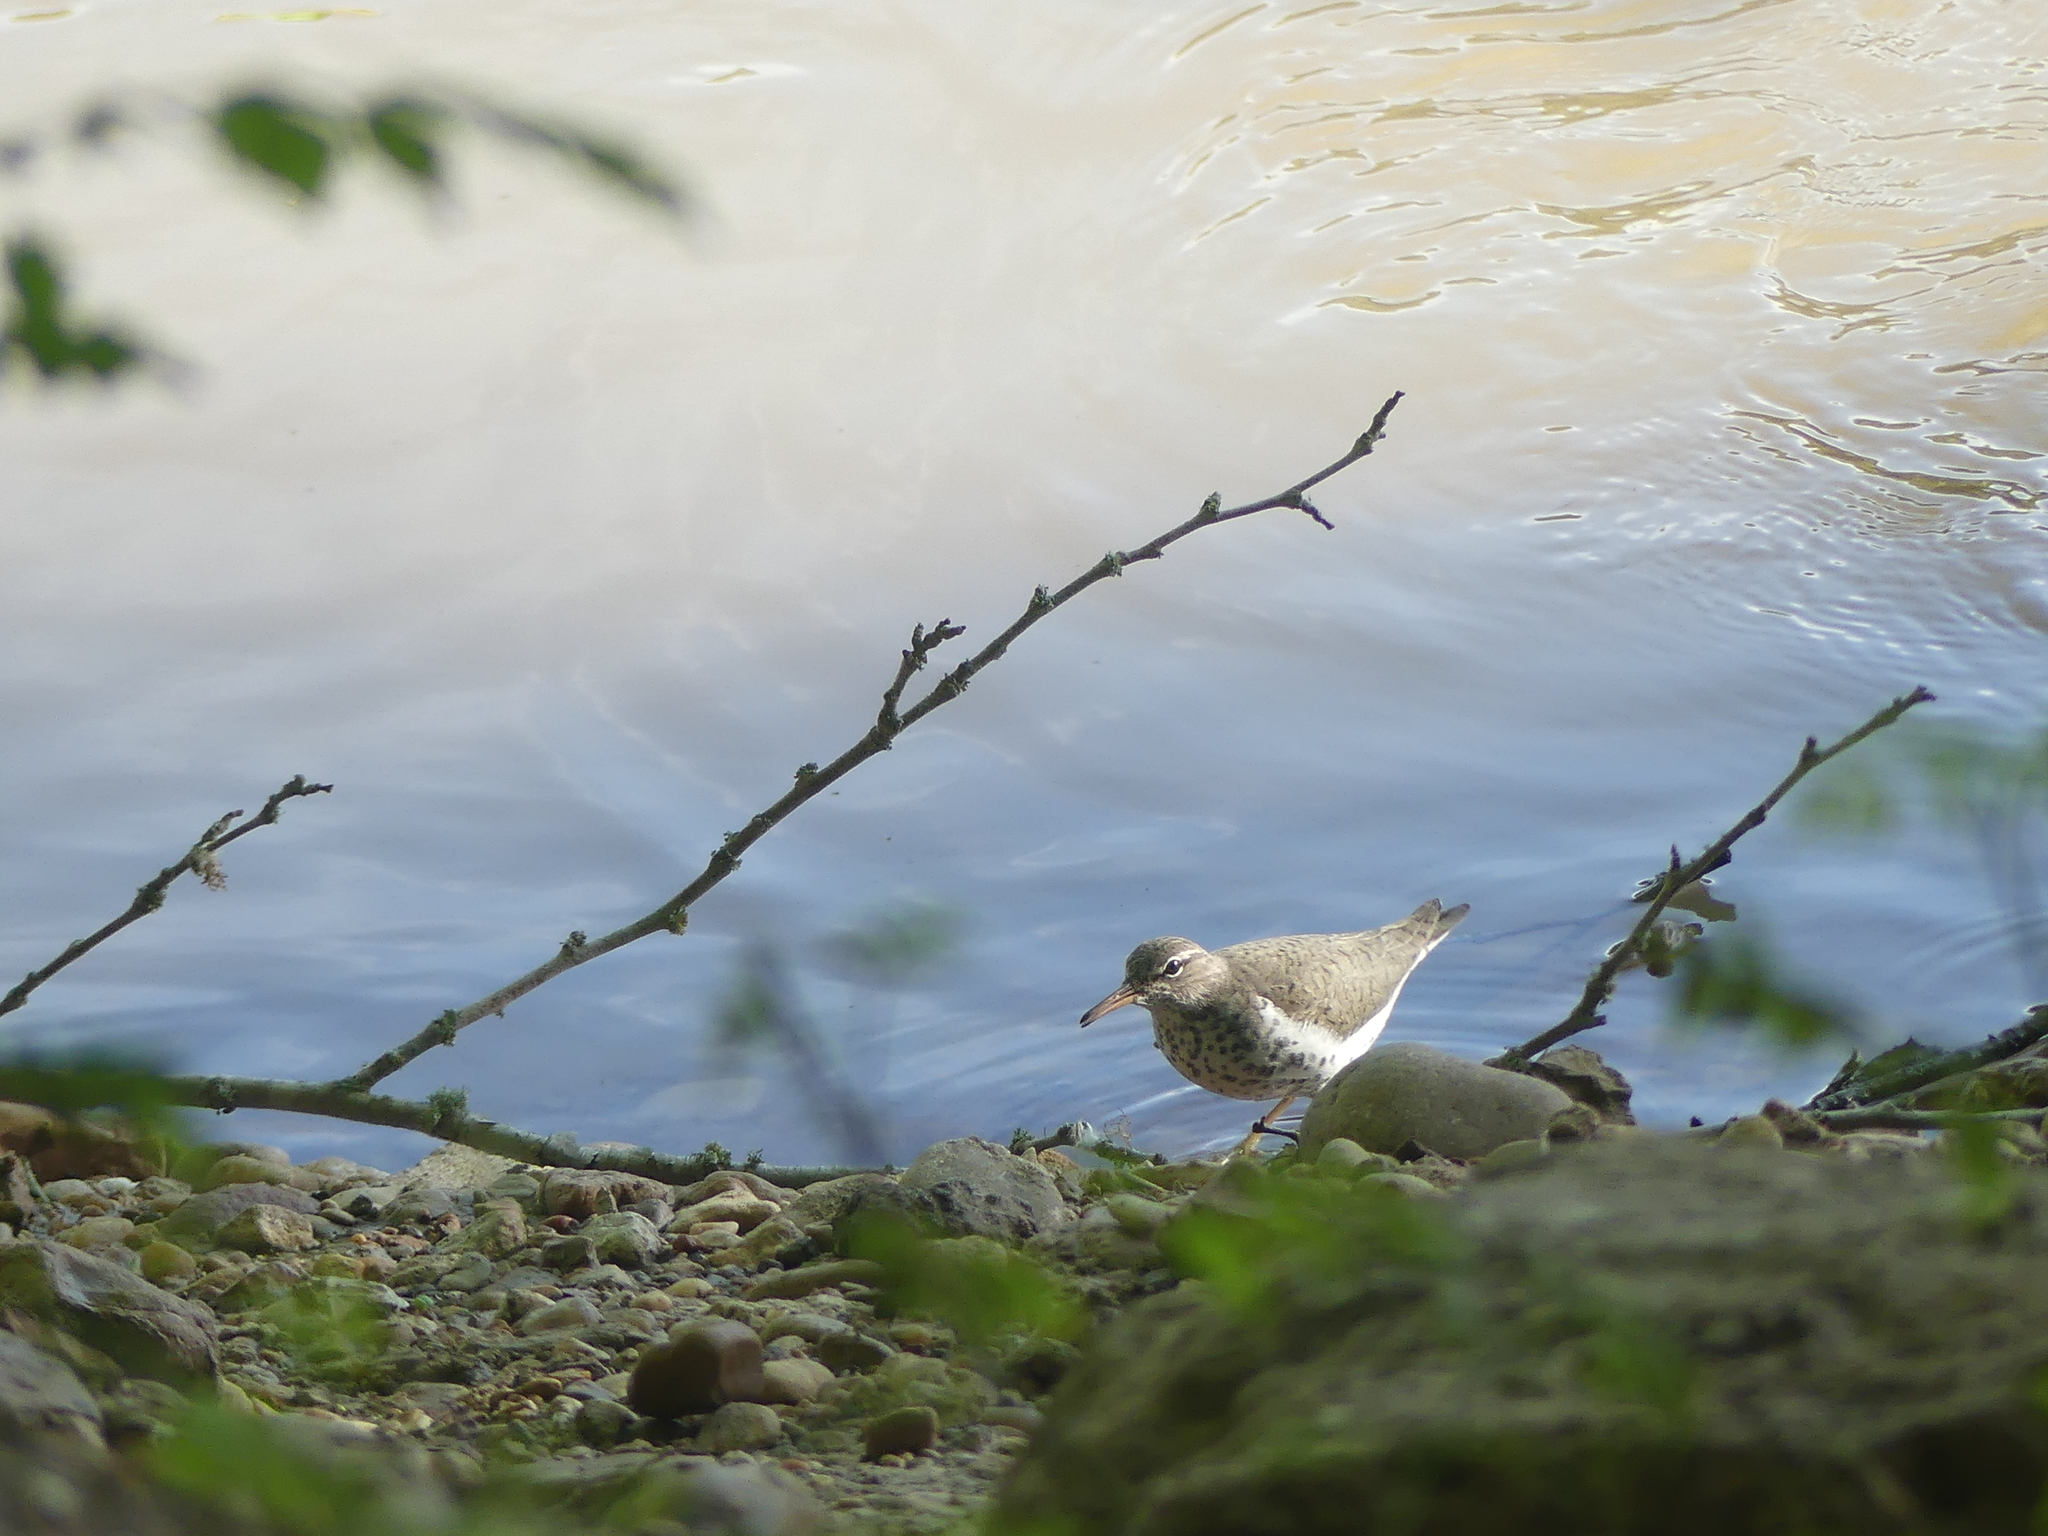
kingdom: Animalia
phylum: Chordata
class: Aves
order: Charadriiformes
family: Scolopacidae
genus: Actitis
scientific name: Actitis macularius
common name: Spotted sandpiper
